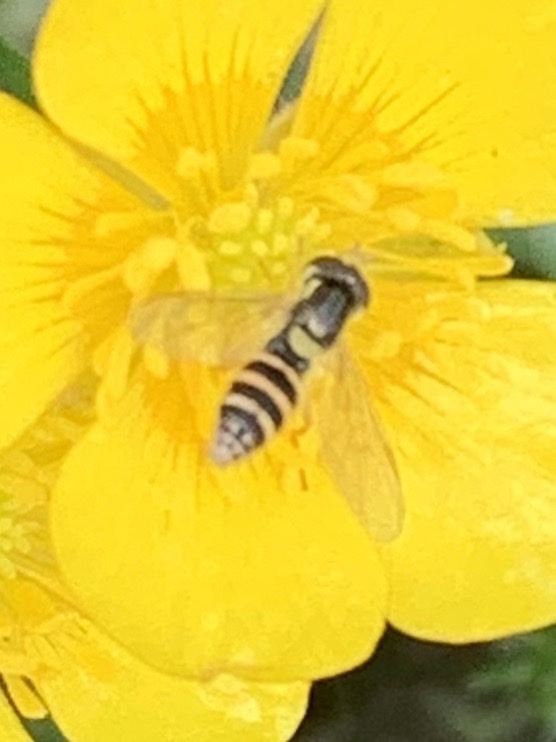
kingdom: Animalia
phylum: Arthropoda
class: Insecta
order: Diptera
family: Syrphidae
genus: Sphaerophoria
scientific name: Sphaerophoria
